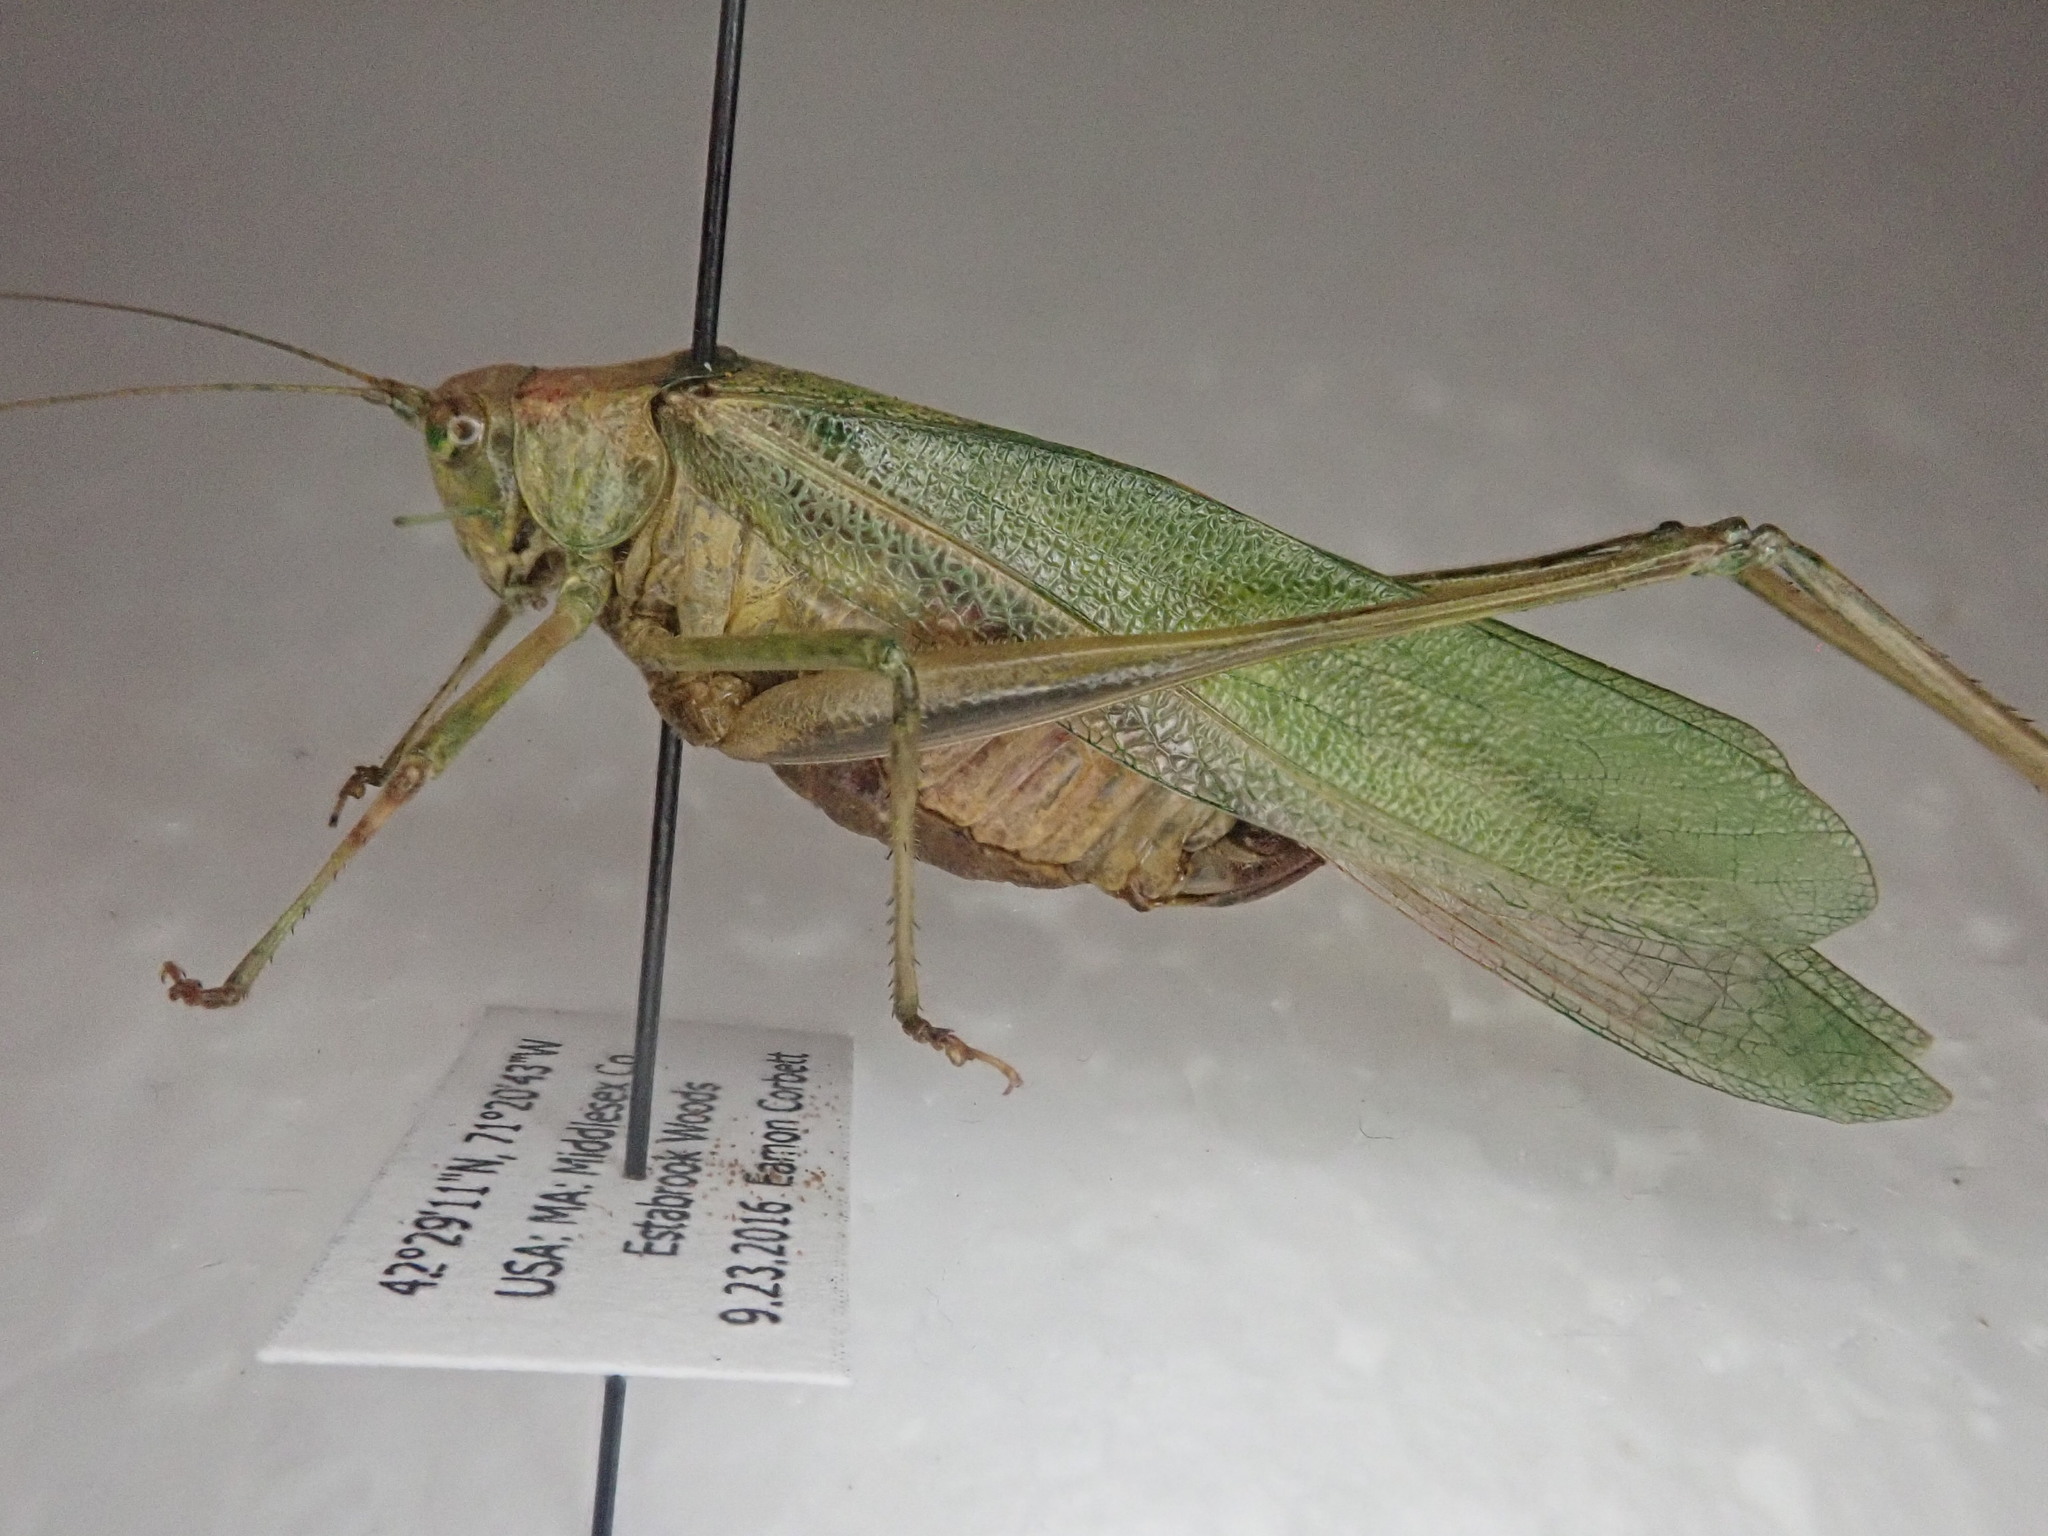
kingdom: Animalia
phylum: Arthropoda
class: Insecta
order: Orthoptera
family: Tettigoniidae
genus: Scudderia
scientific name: Scudderia furcata
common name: Fork-tailed bush katydid
